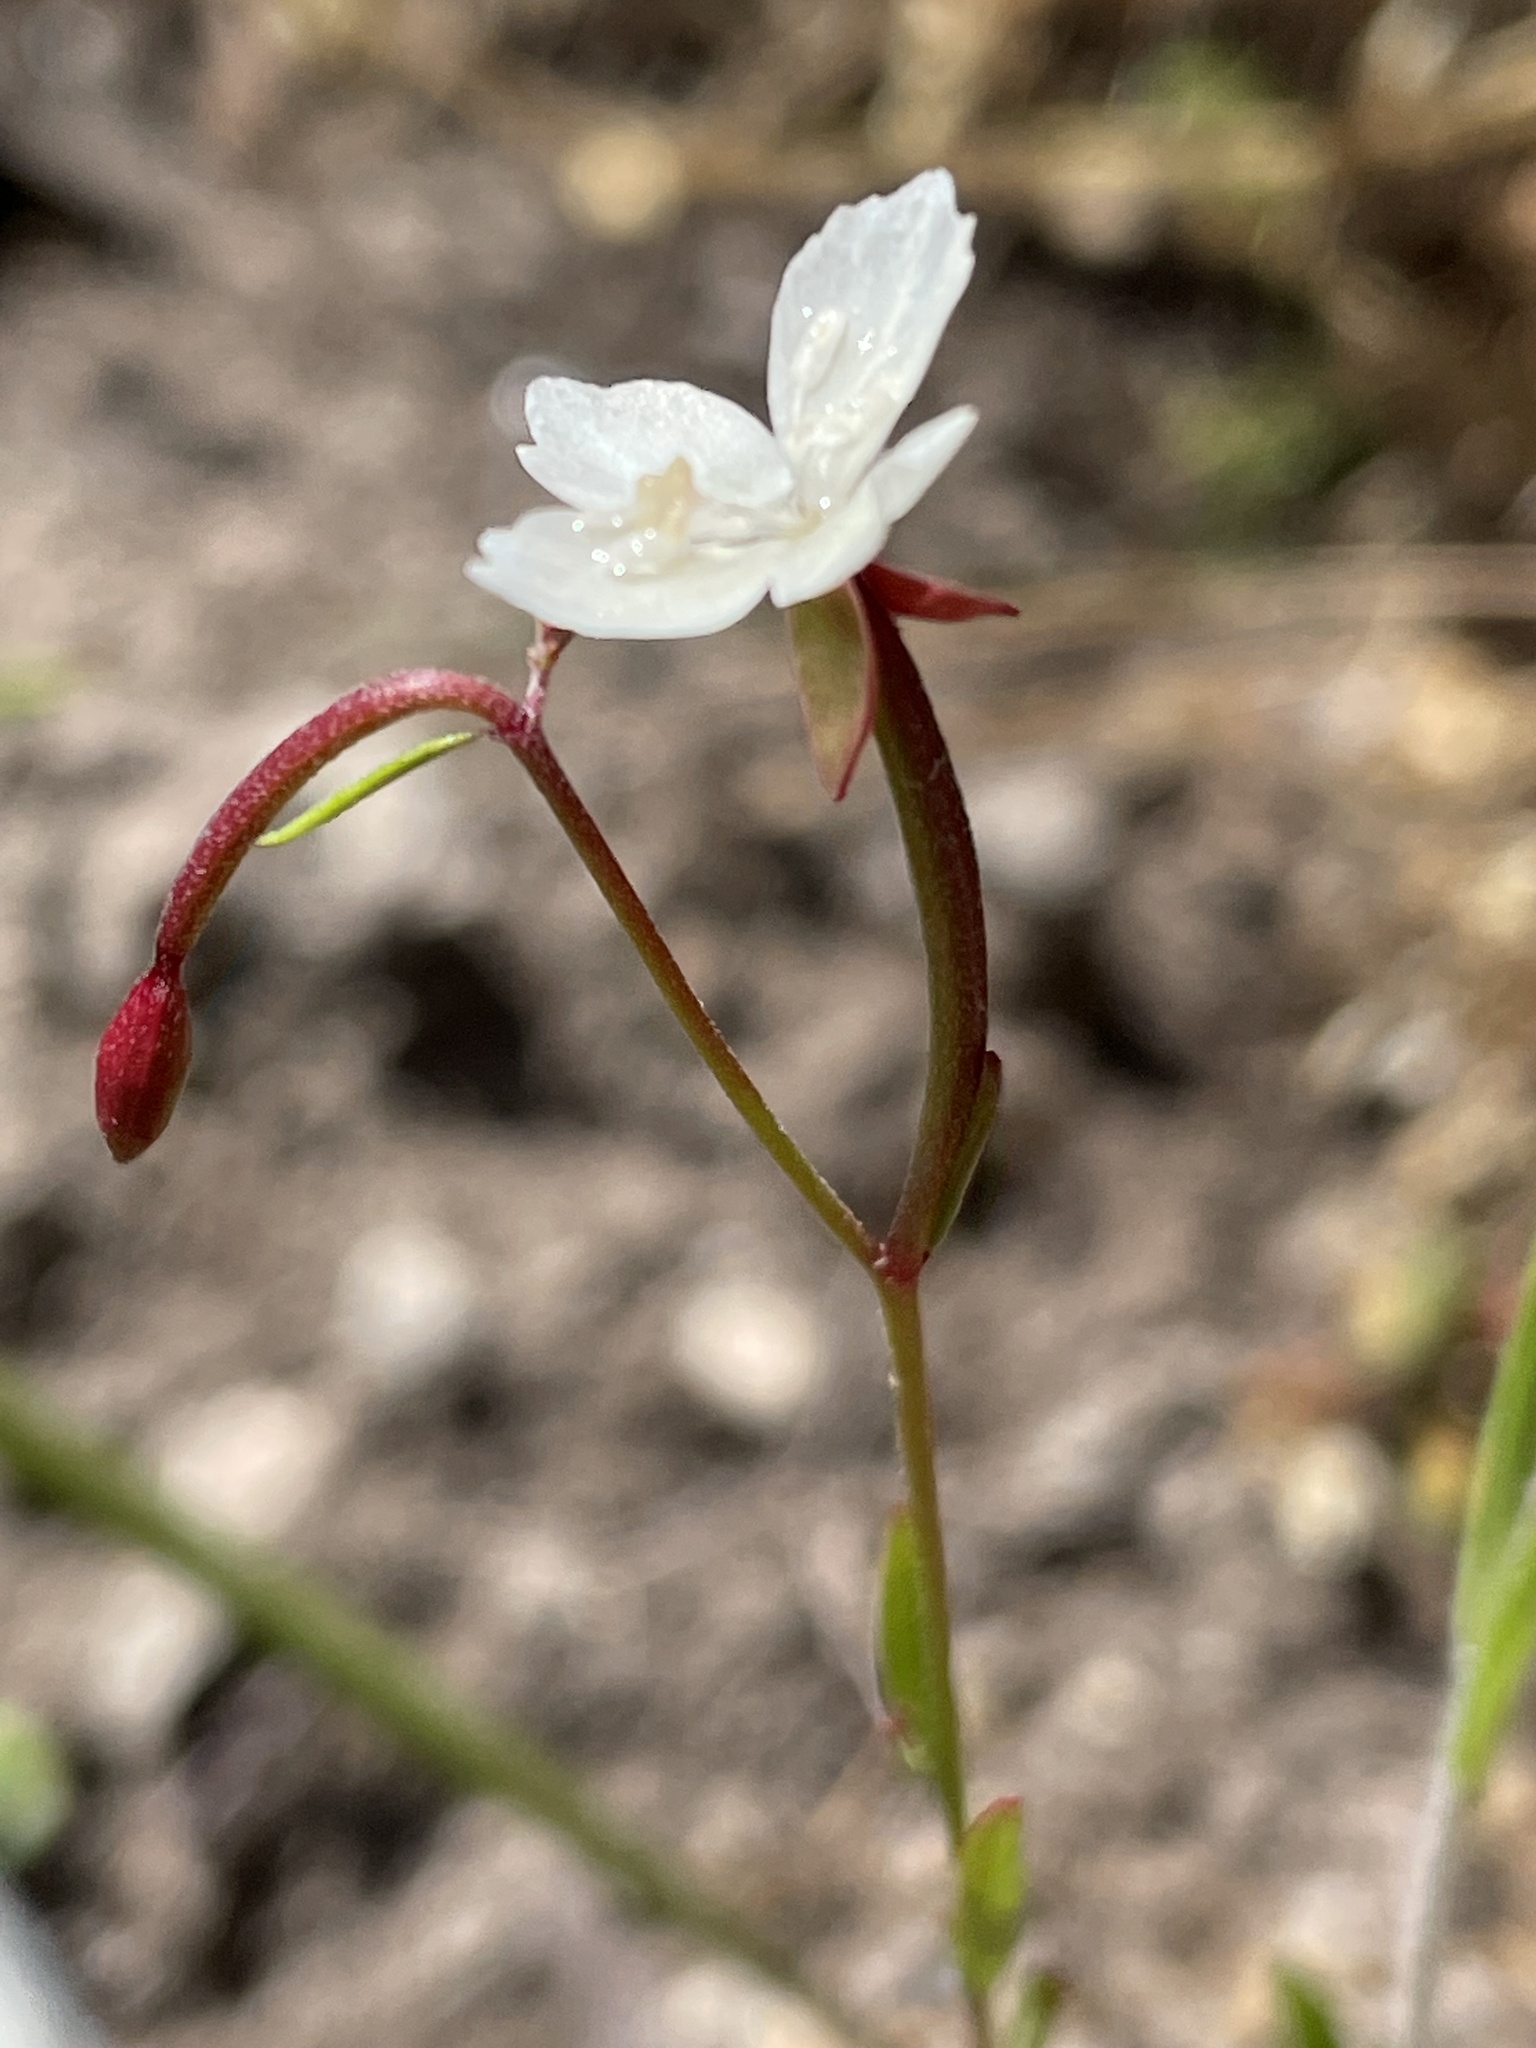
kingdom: Plantae
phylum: Tracheophyta
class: Magnoliopsida
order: Myrtales
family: Onagraceae
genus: Clarkia
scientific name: Clarkia epilobioides
